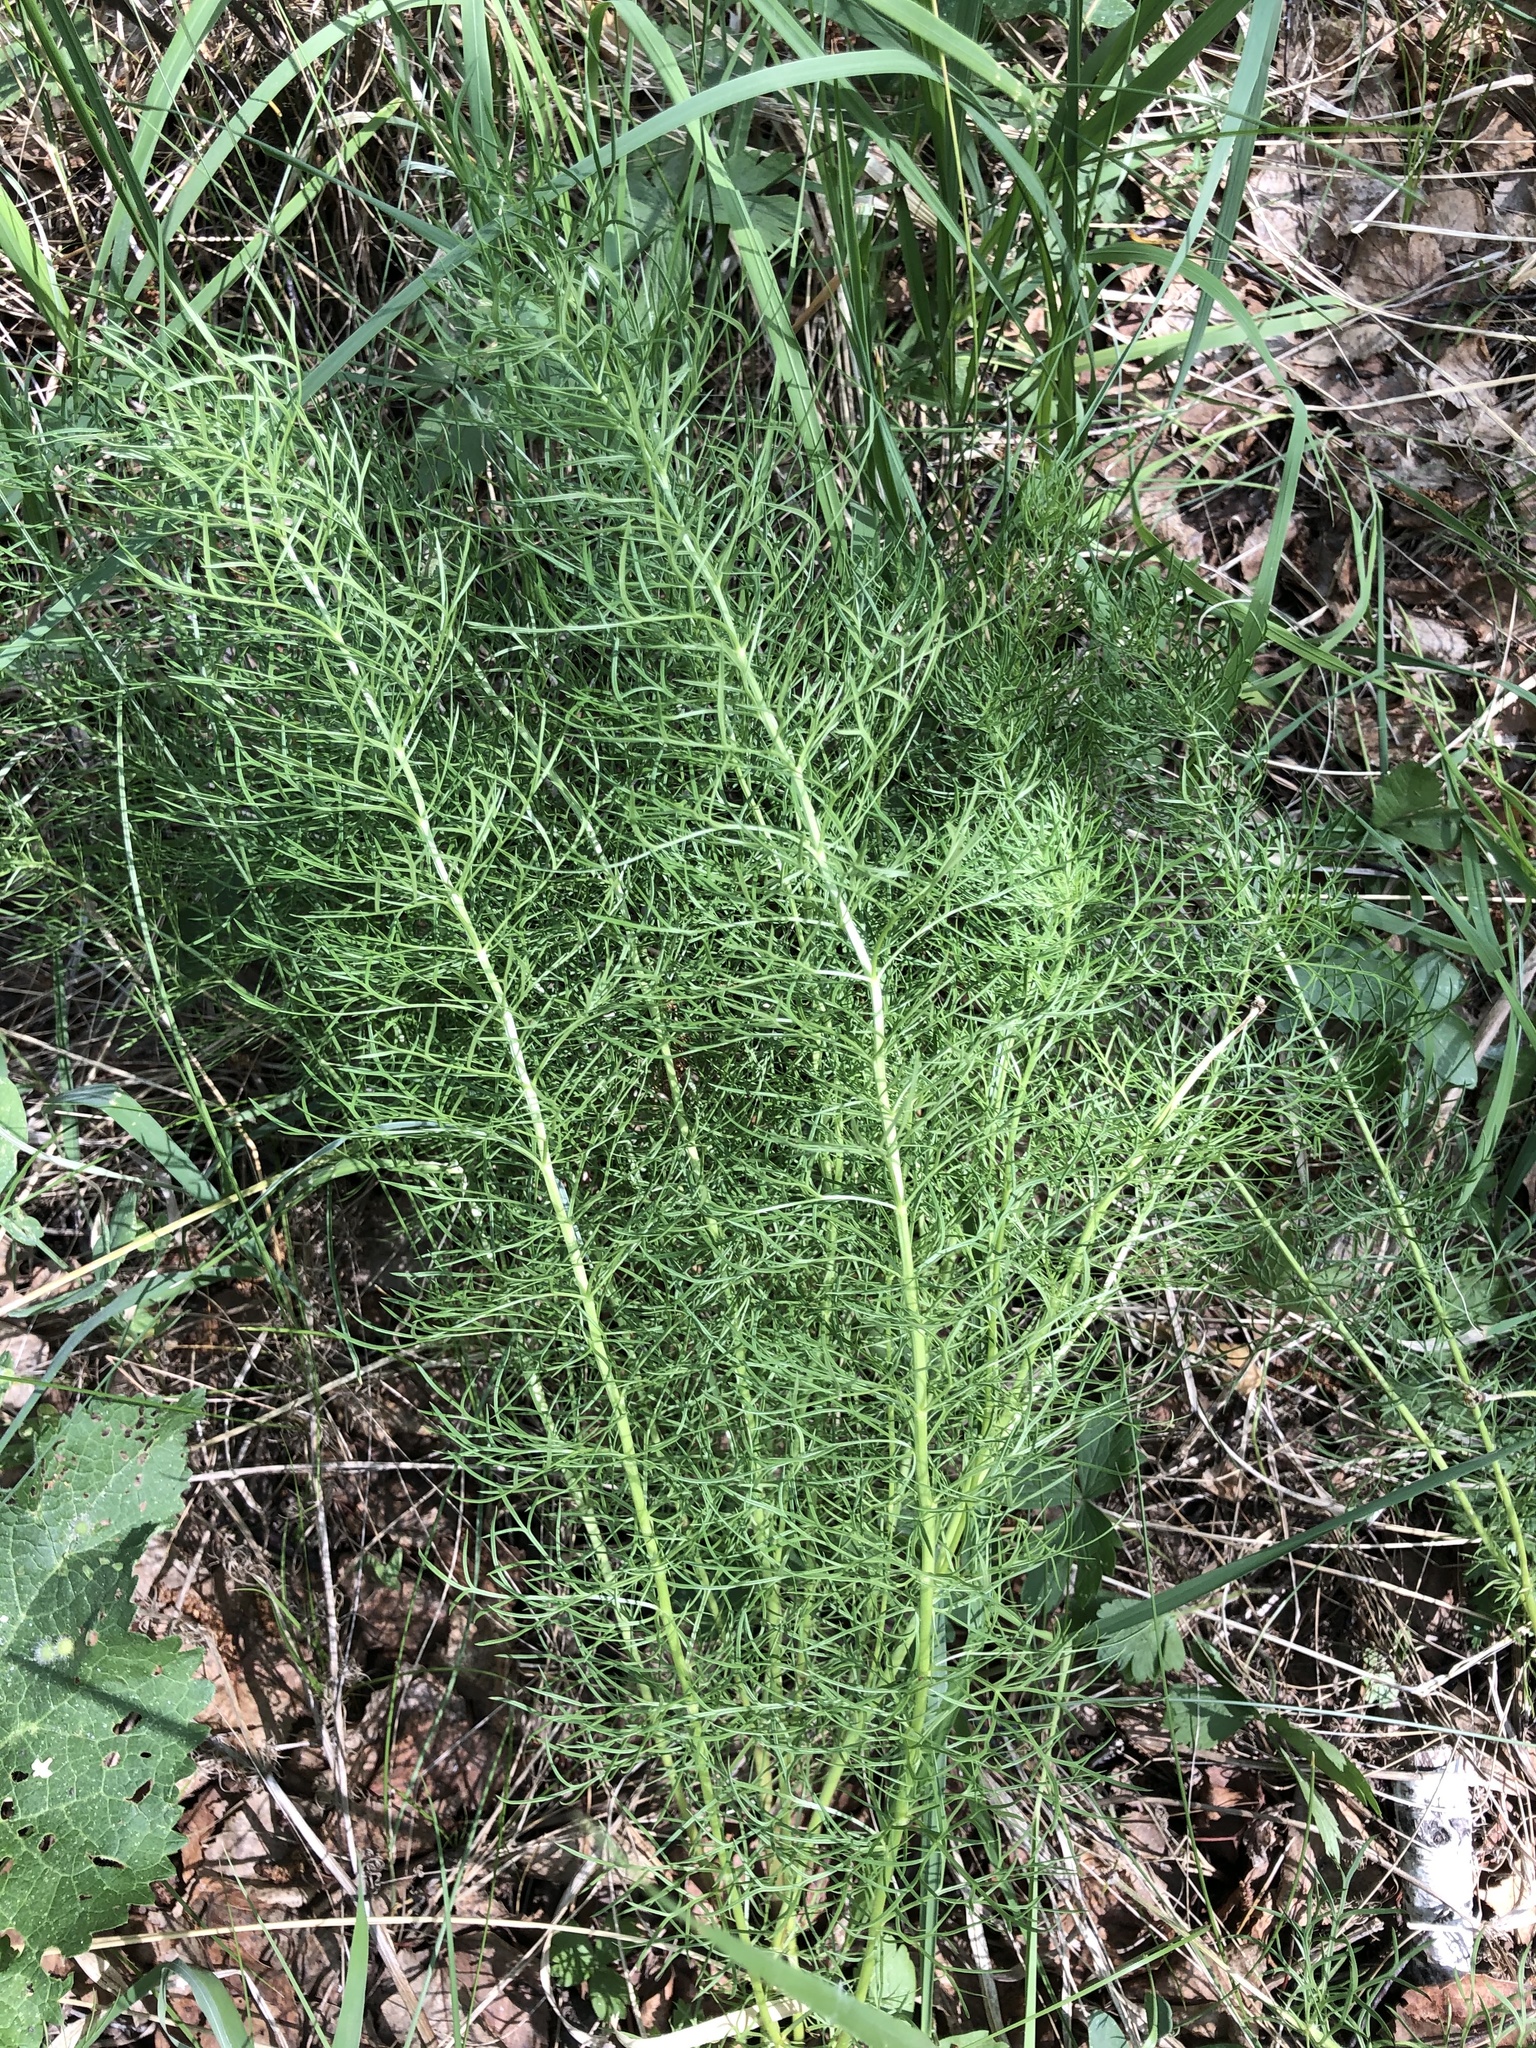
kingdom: Plantae
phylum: Tracheophyta
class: Magnoliopsida
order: Ranunculales
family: Ranunculaceae
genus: Adonis
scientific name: Adonis vernalis
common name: Yellow pheasants-eye
